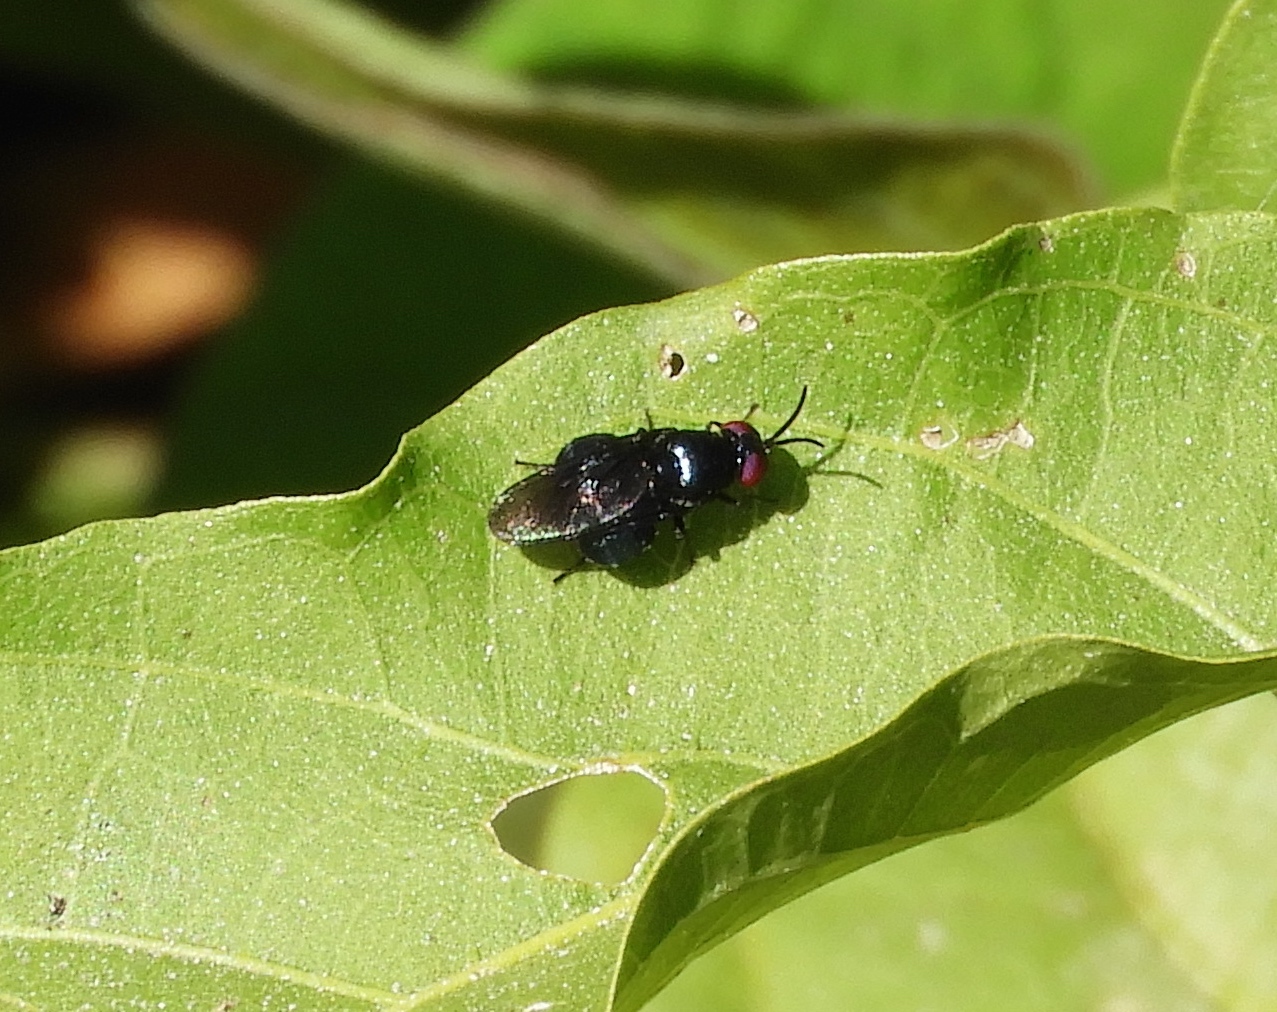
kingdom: Animalia
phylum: Arthropoda
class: Insecta
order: Diptera
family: Stratiomyidae
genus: Chordonota
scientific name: Chordonota fuscipennis
